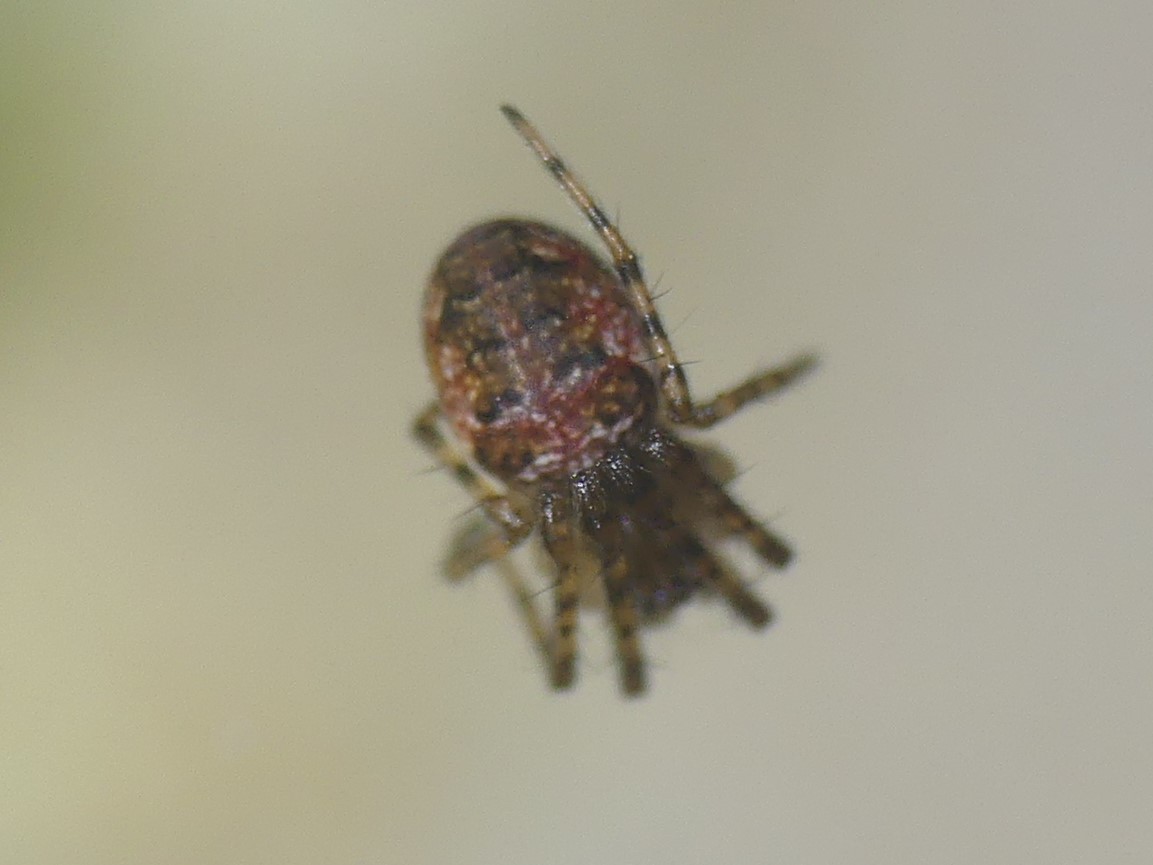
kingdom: Animalia
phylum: Arthropoda
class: Arachnida
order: Araneae
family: Araneidae
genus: Zilla
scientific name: Zilla diodia
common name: Zilla diodia
